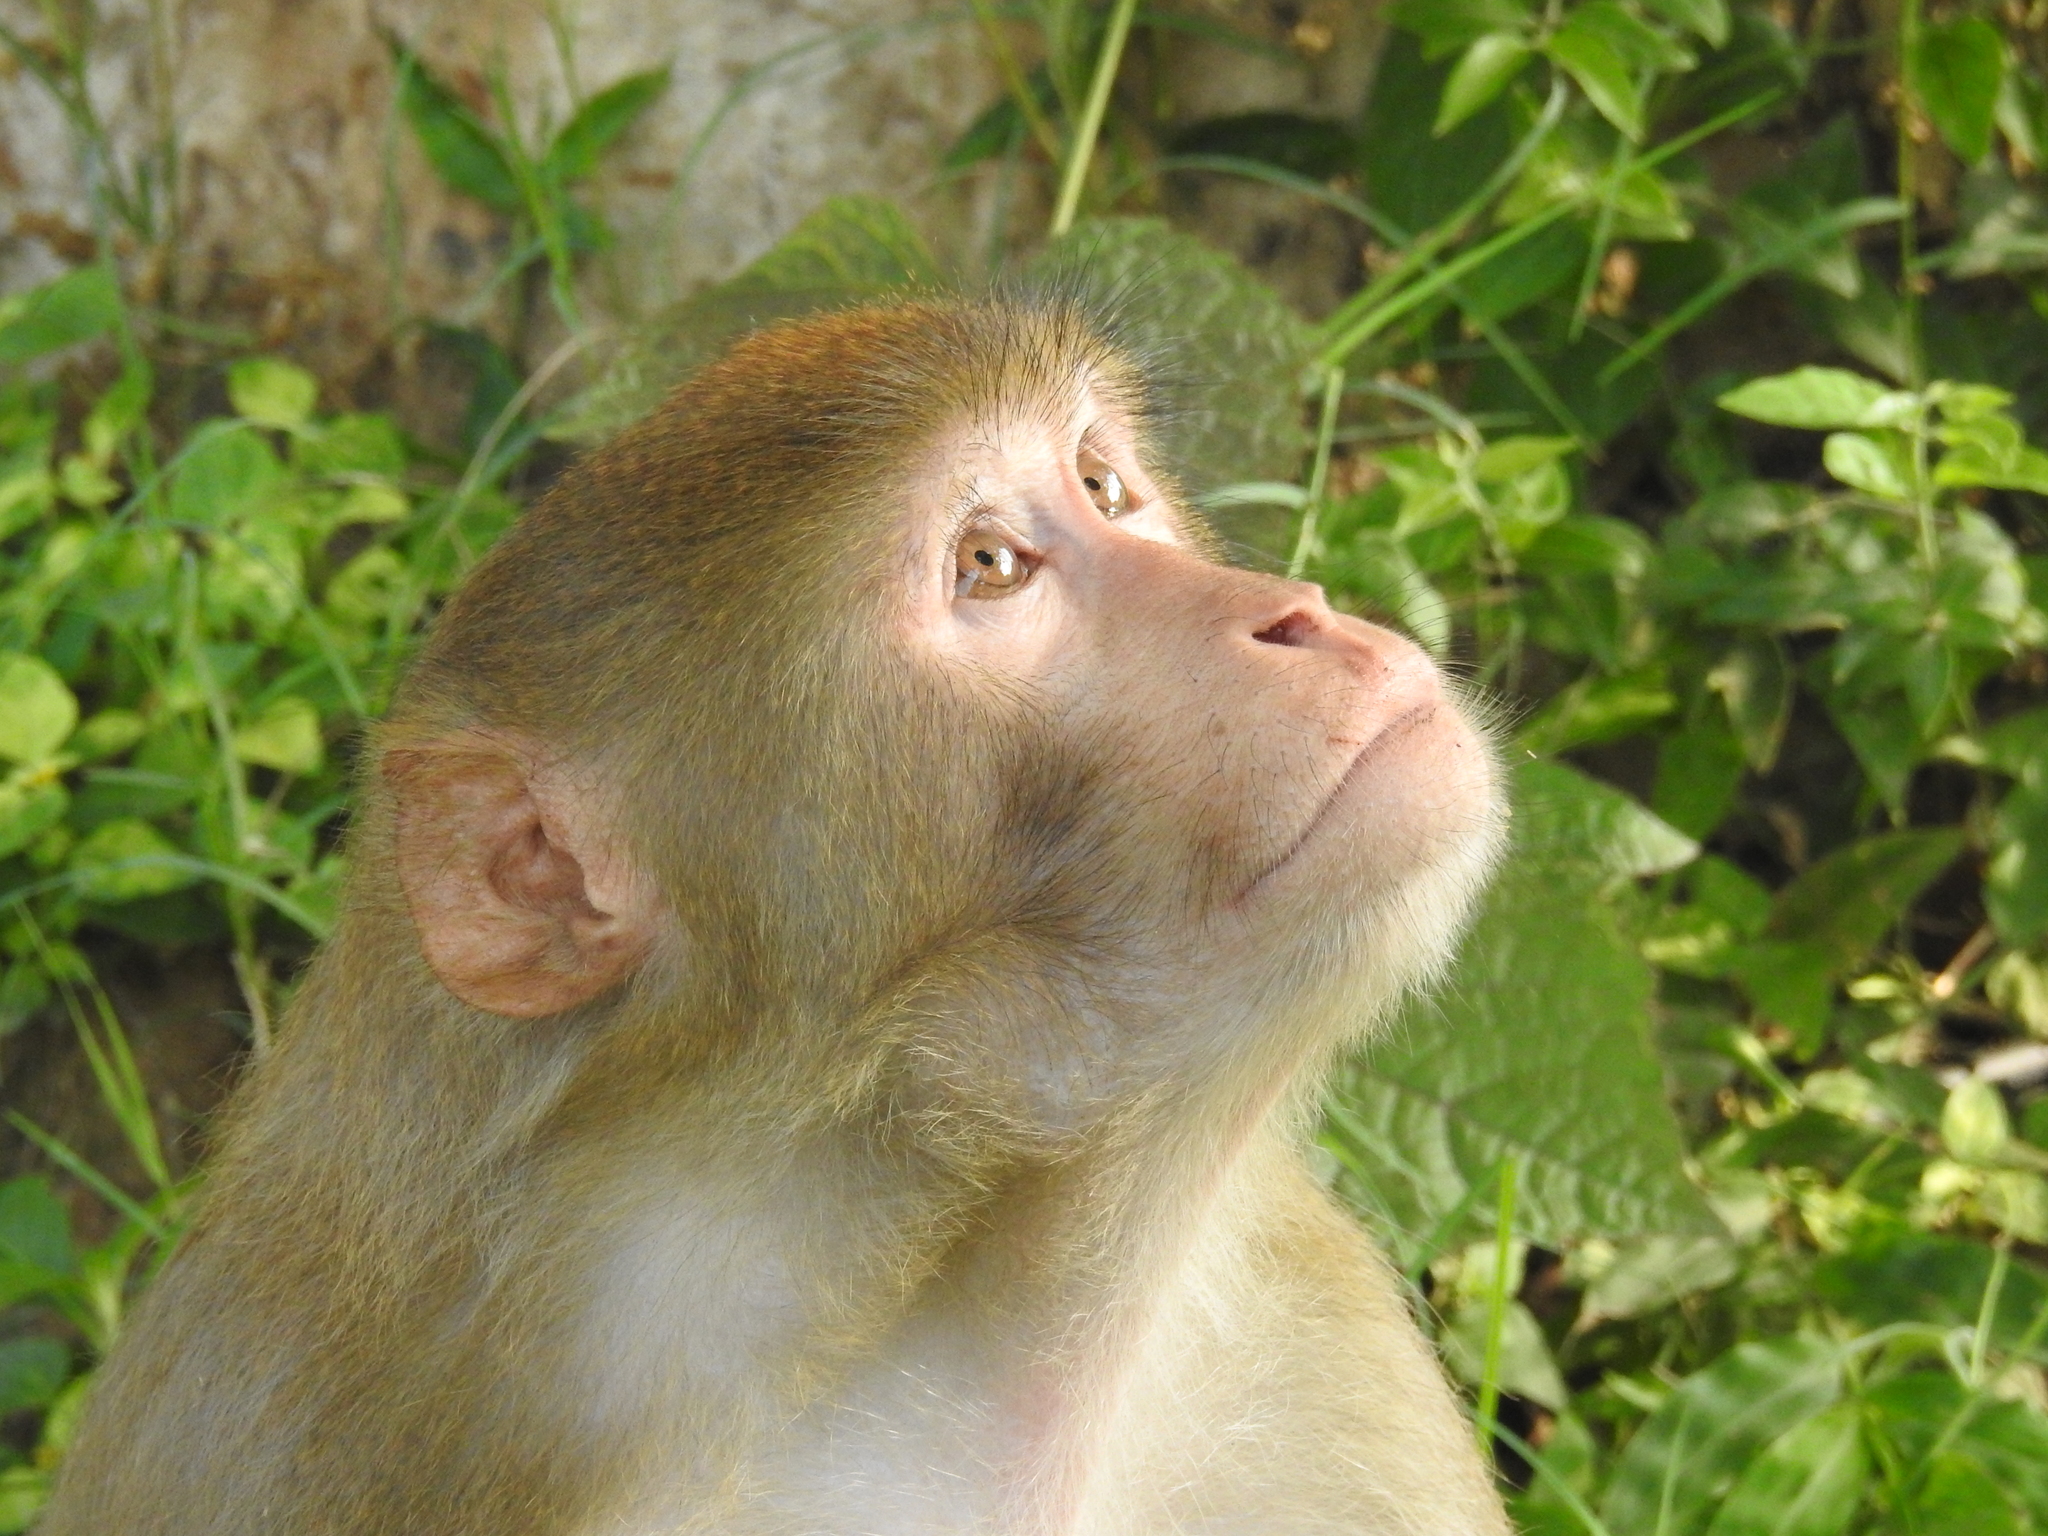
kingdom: Animalia
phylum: Chordata
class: Mammalia
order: Primates
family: Cercopithecidae
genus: Macaca
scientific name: Macaca mulatta
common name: Rhesus monkey
